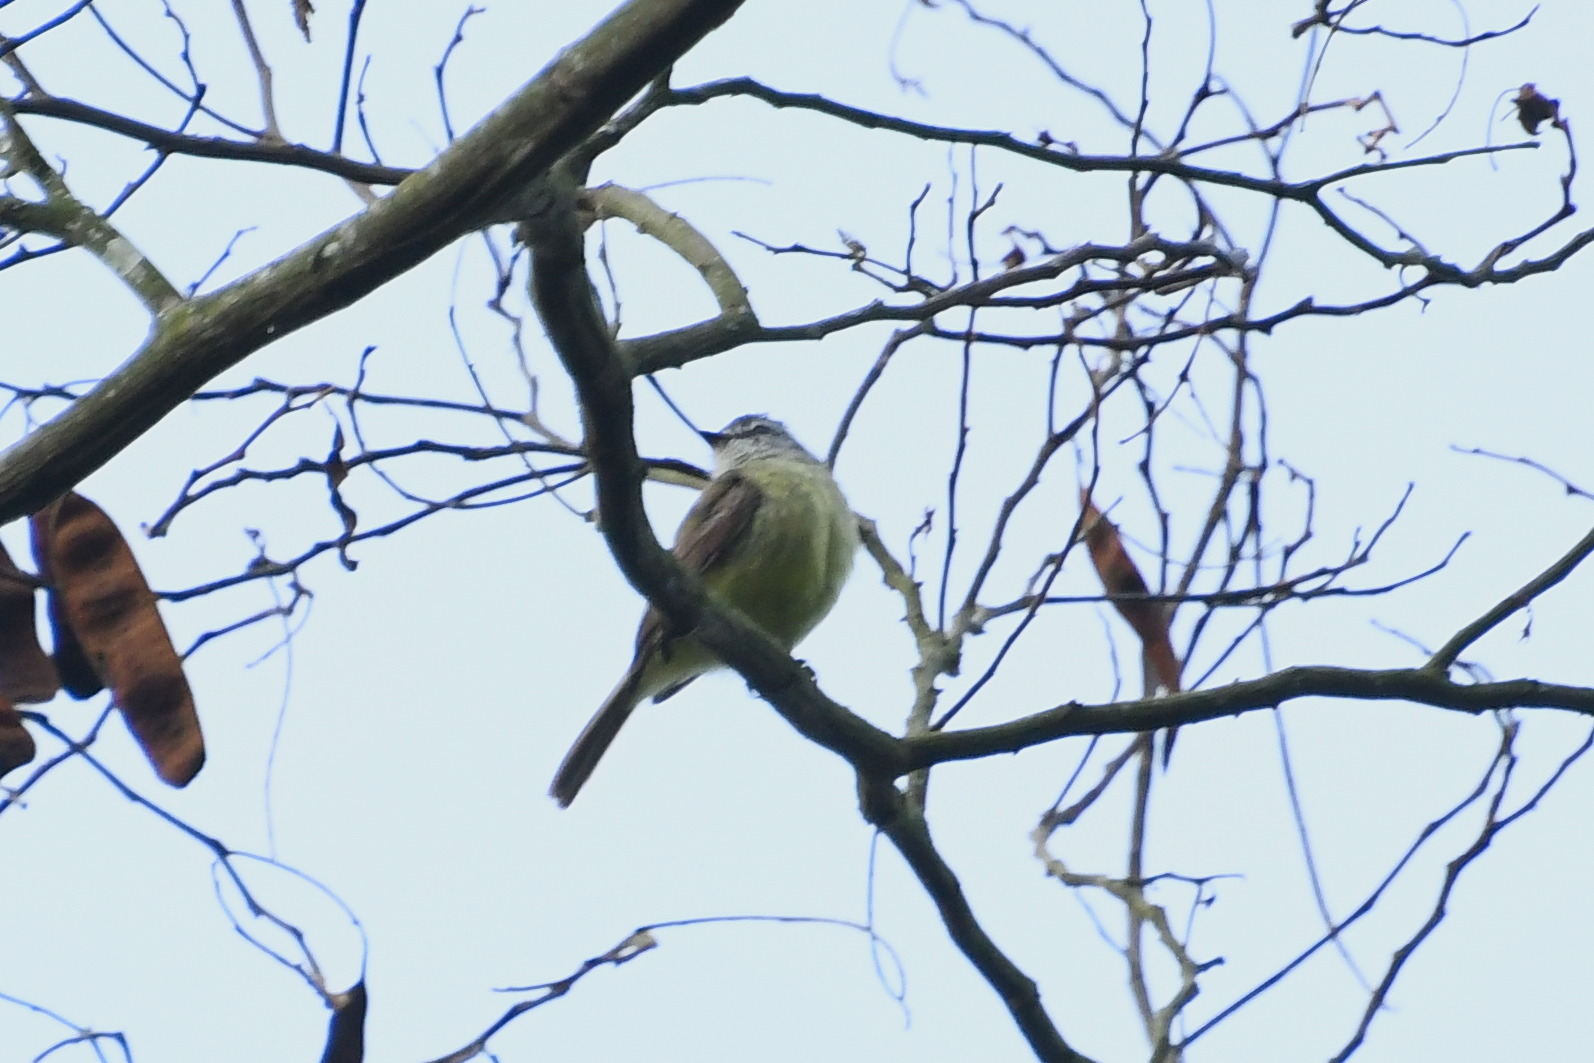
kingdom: Animalia
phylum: Chordata
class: Aves
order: Passeriformes
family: Tyrannidae
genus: Phyllomyias
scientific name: Phyllomyias griseiceps
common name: Sooty-headed tyrannulet
